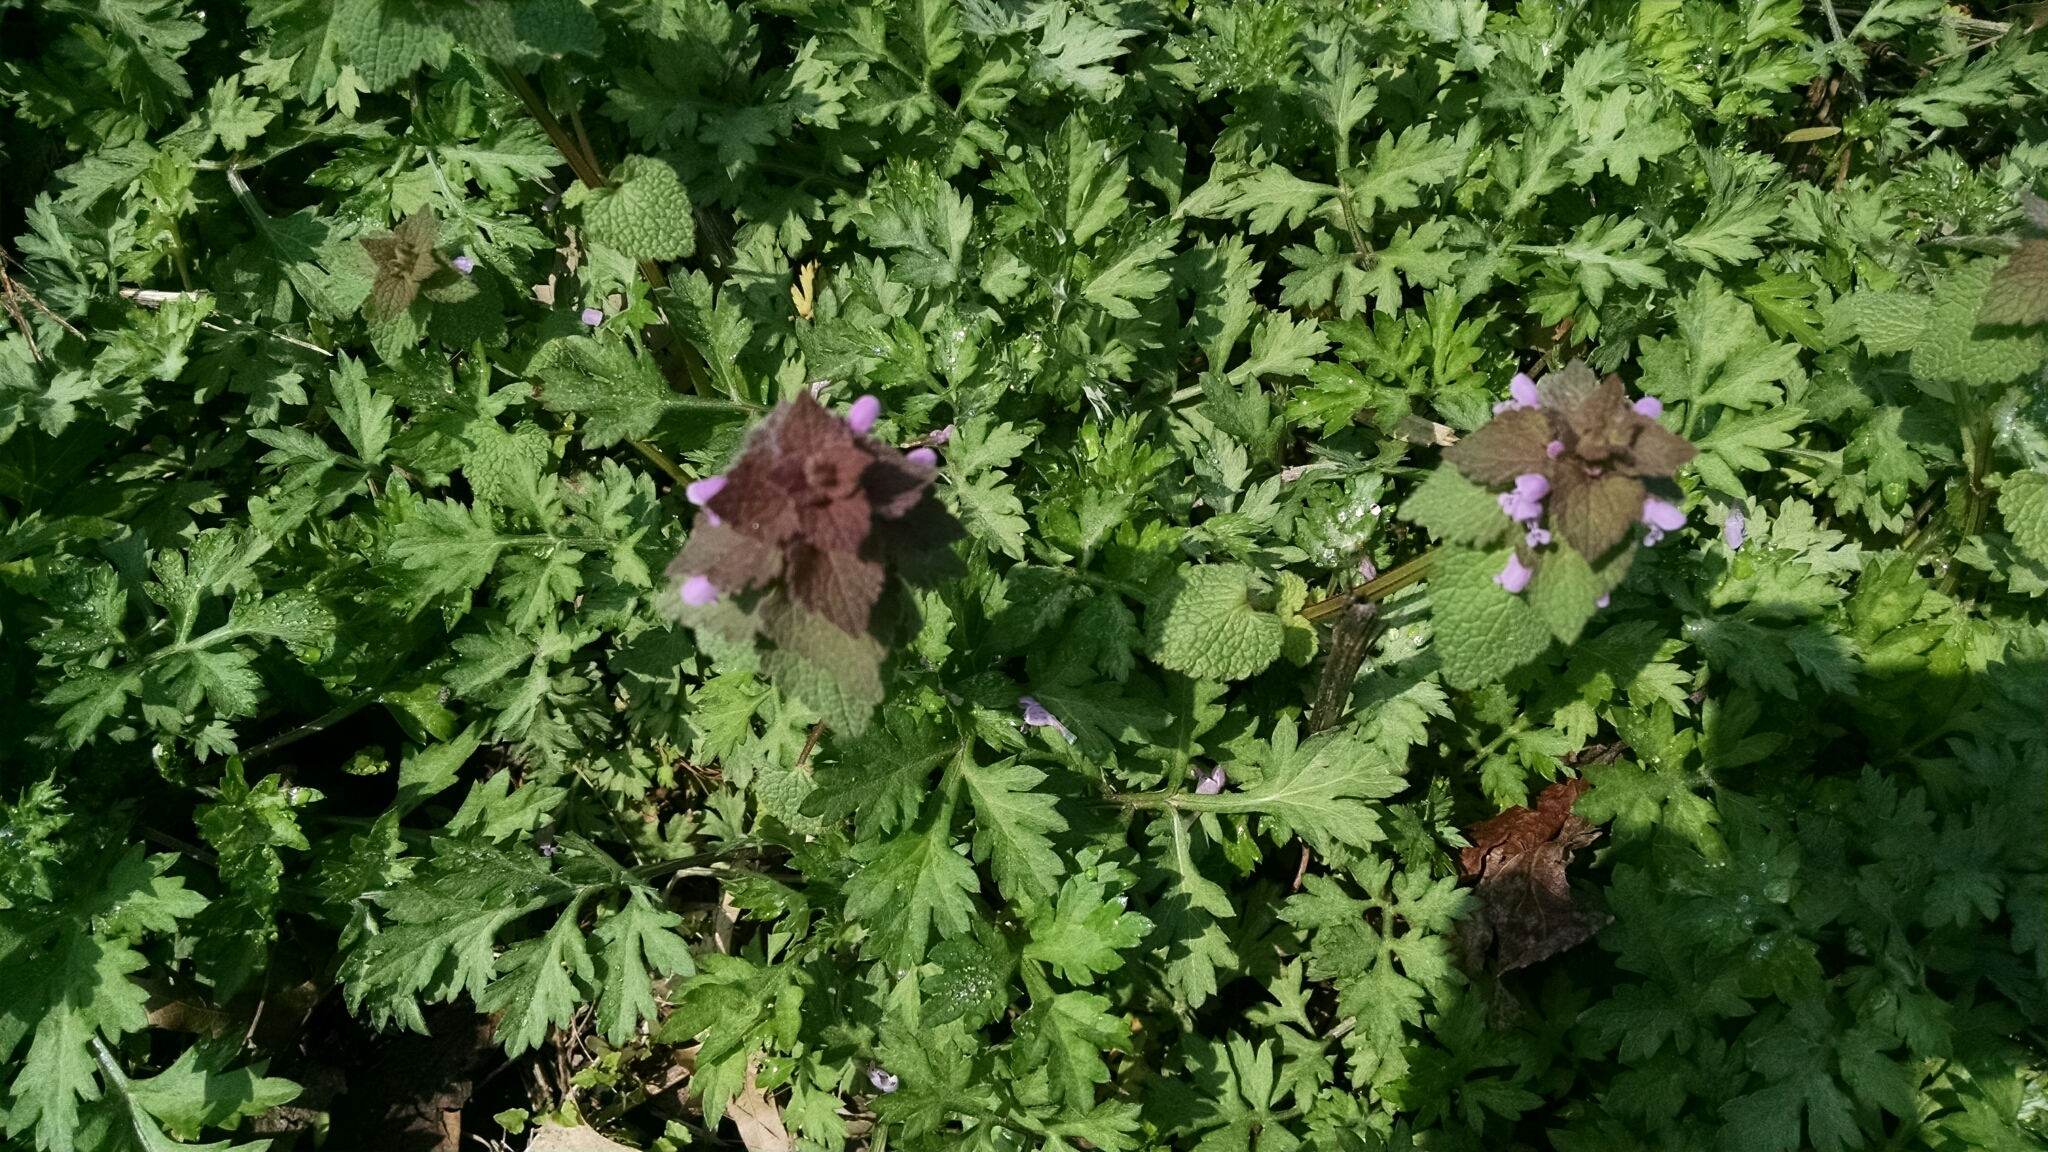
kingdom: Plantae
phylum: Tracheophyta
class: Magnoliopsida
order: Lamiales
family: Lamiaceae
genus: Lamium
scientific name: Lamium purpureum
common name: Red dead-nettle
